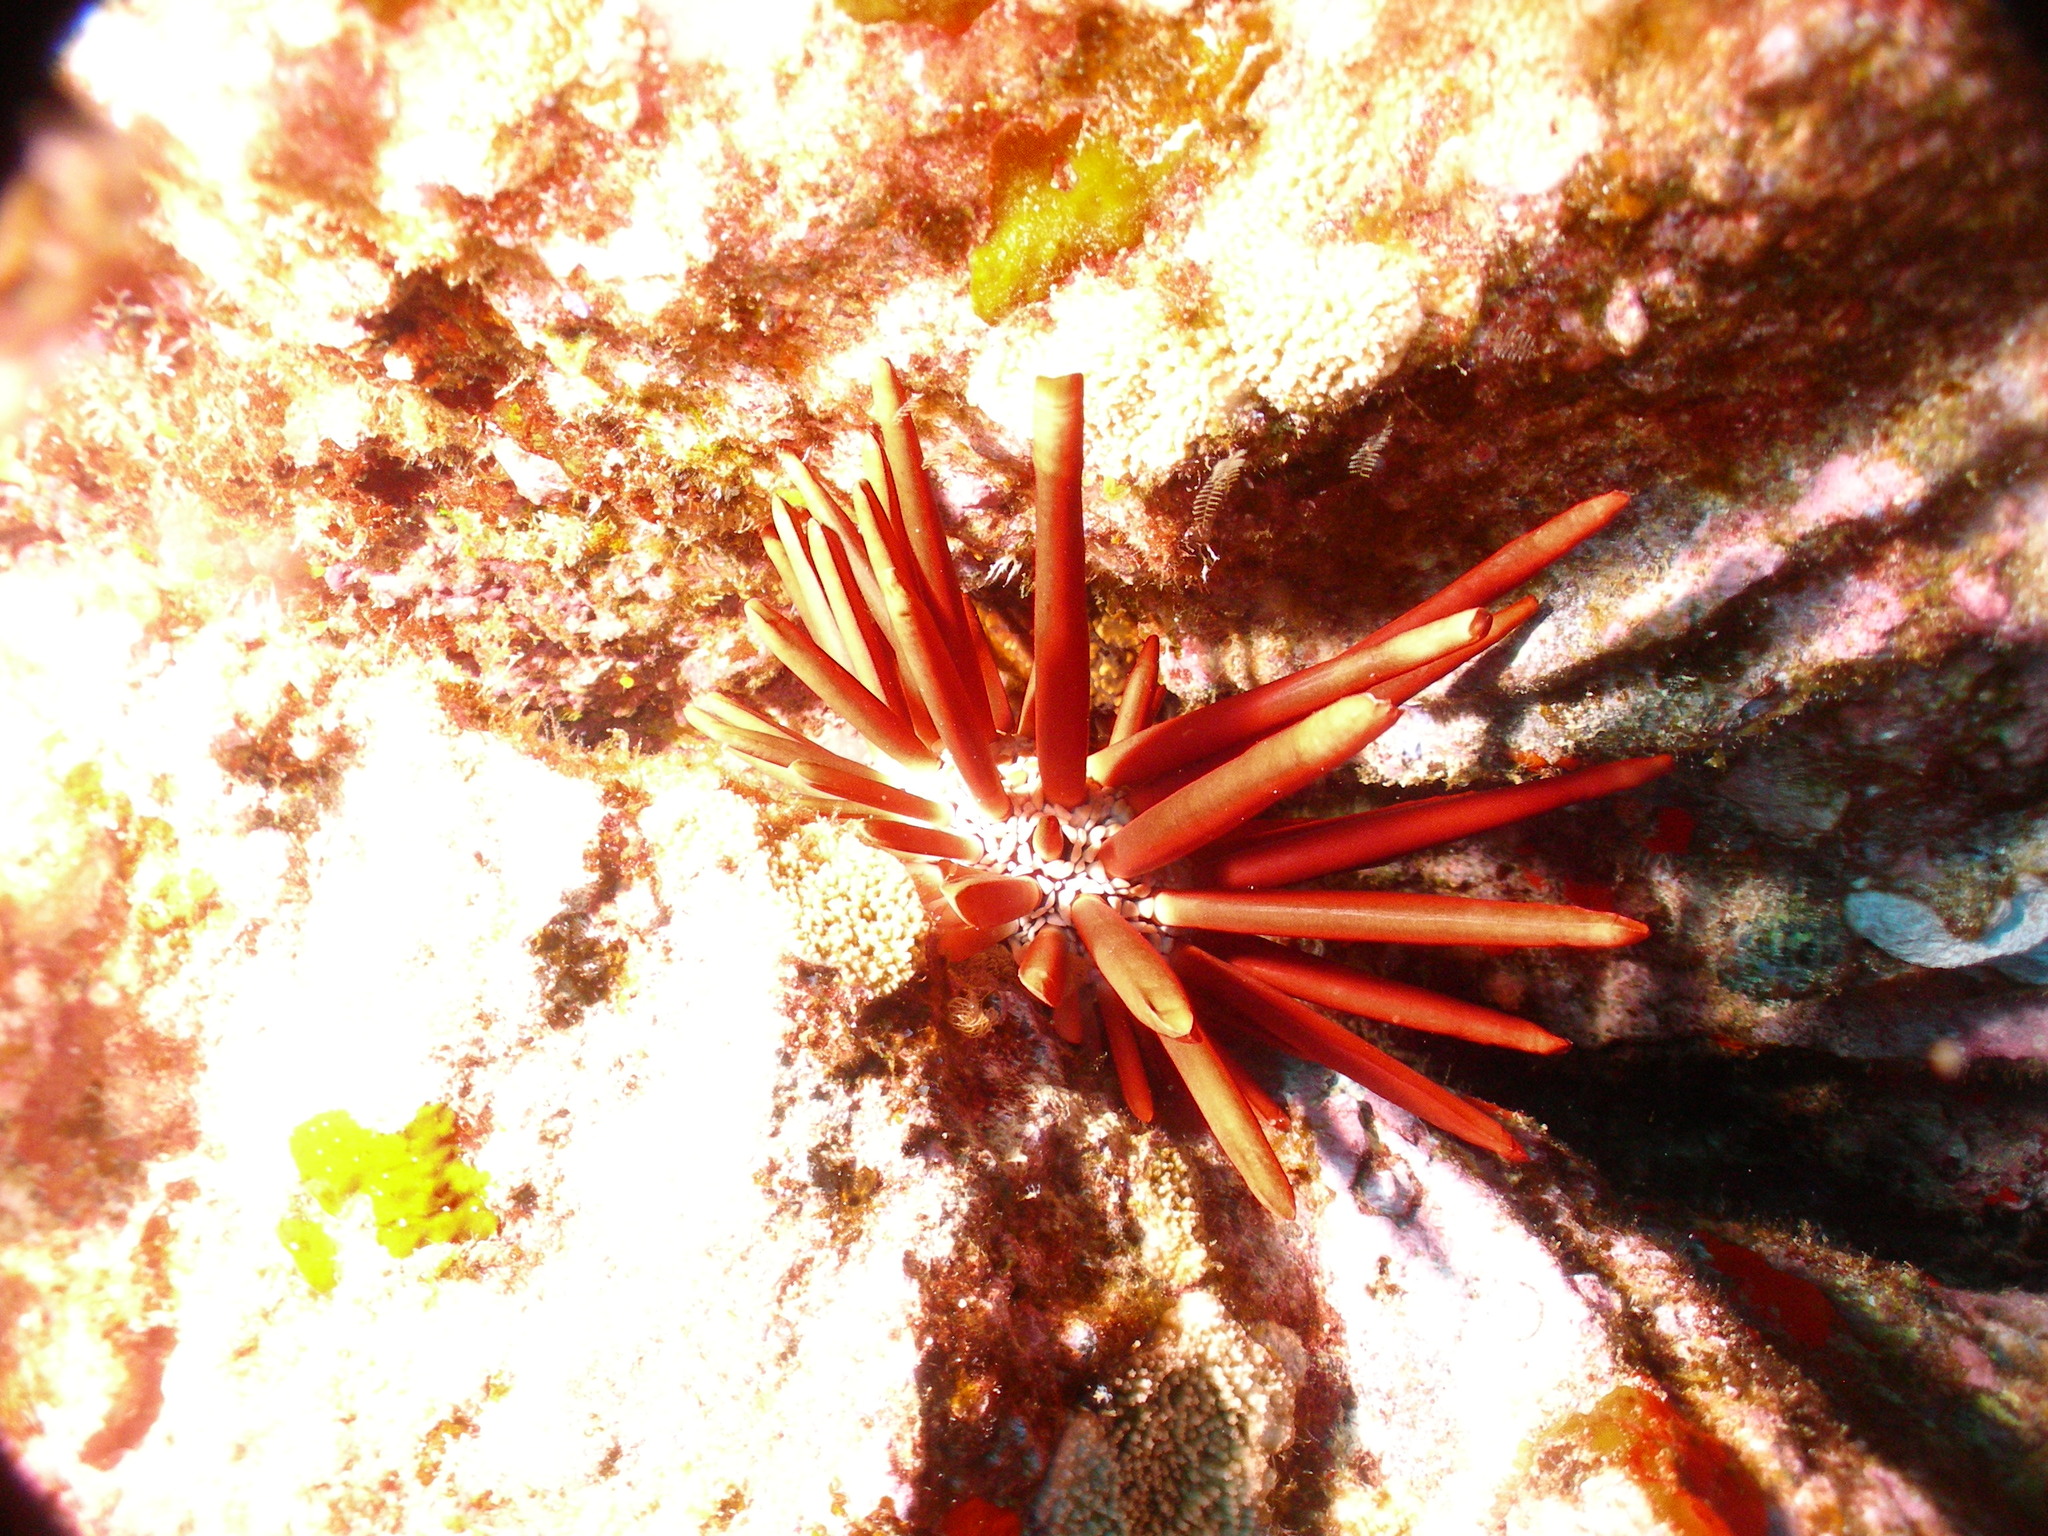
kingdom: Animalia
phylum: Echinodermata
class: Echinoidea
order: Camarodonta
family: Echinometridae
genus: Heterocentrotus
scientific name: Heterocentrotus mamillatus
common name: Slate pencil urchin
